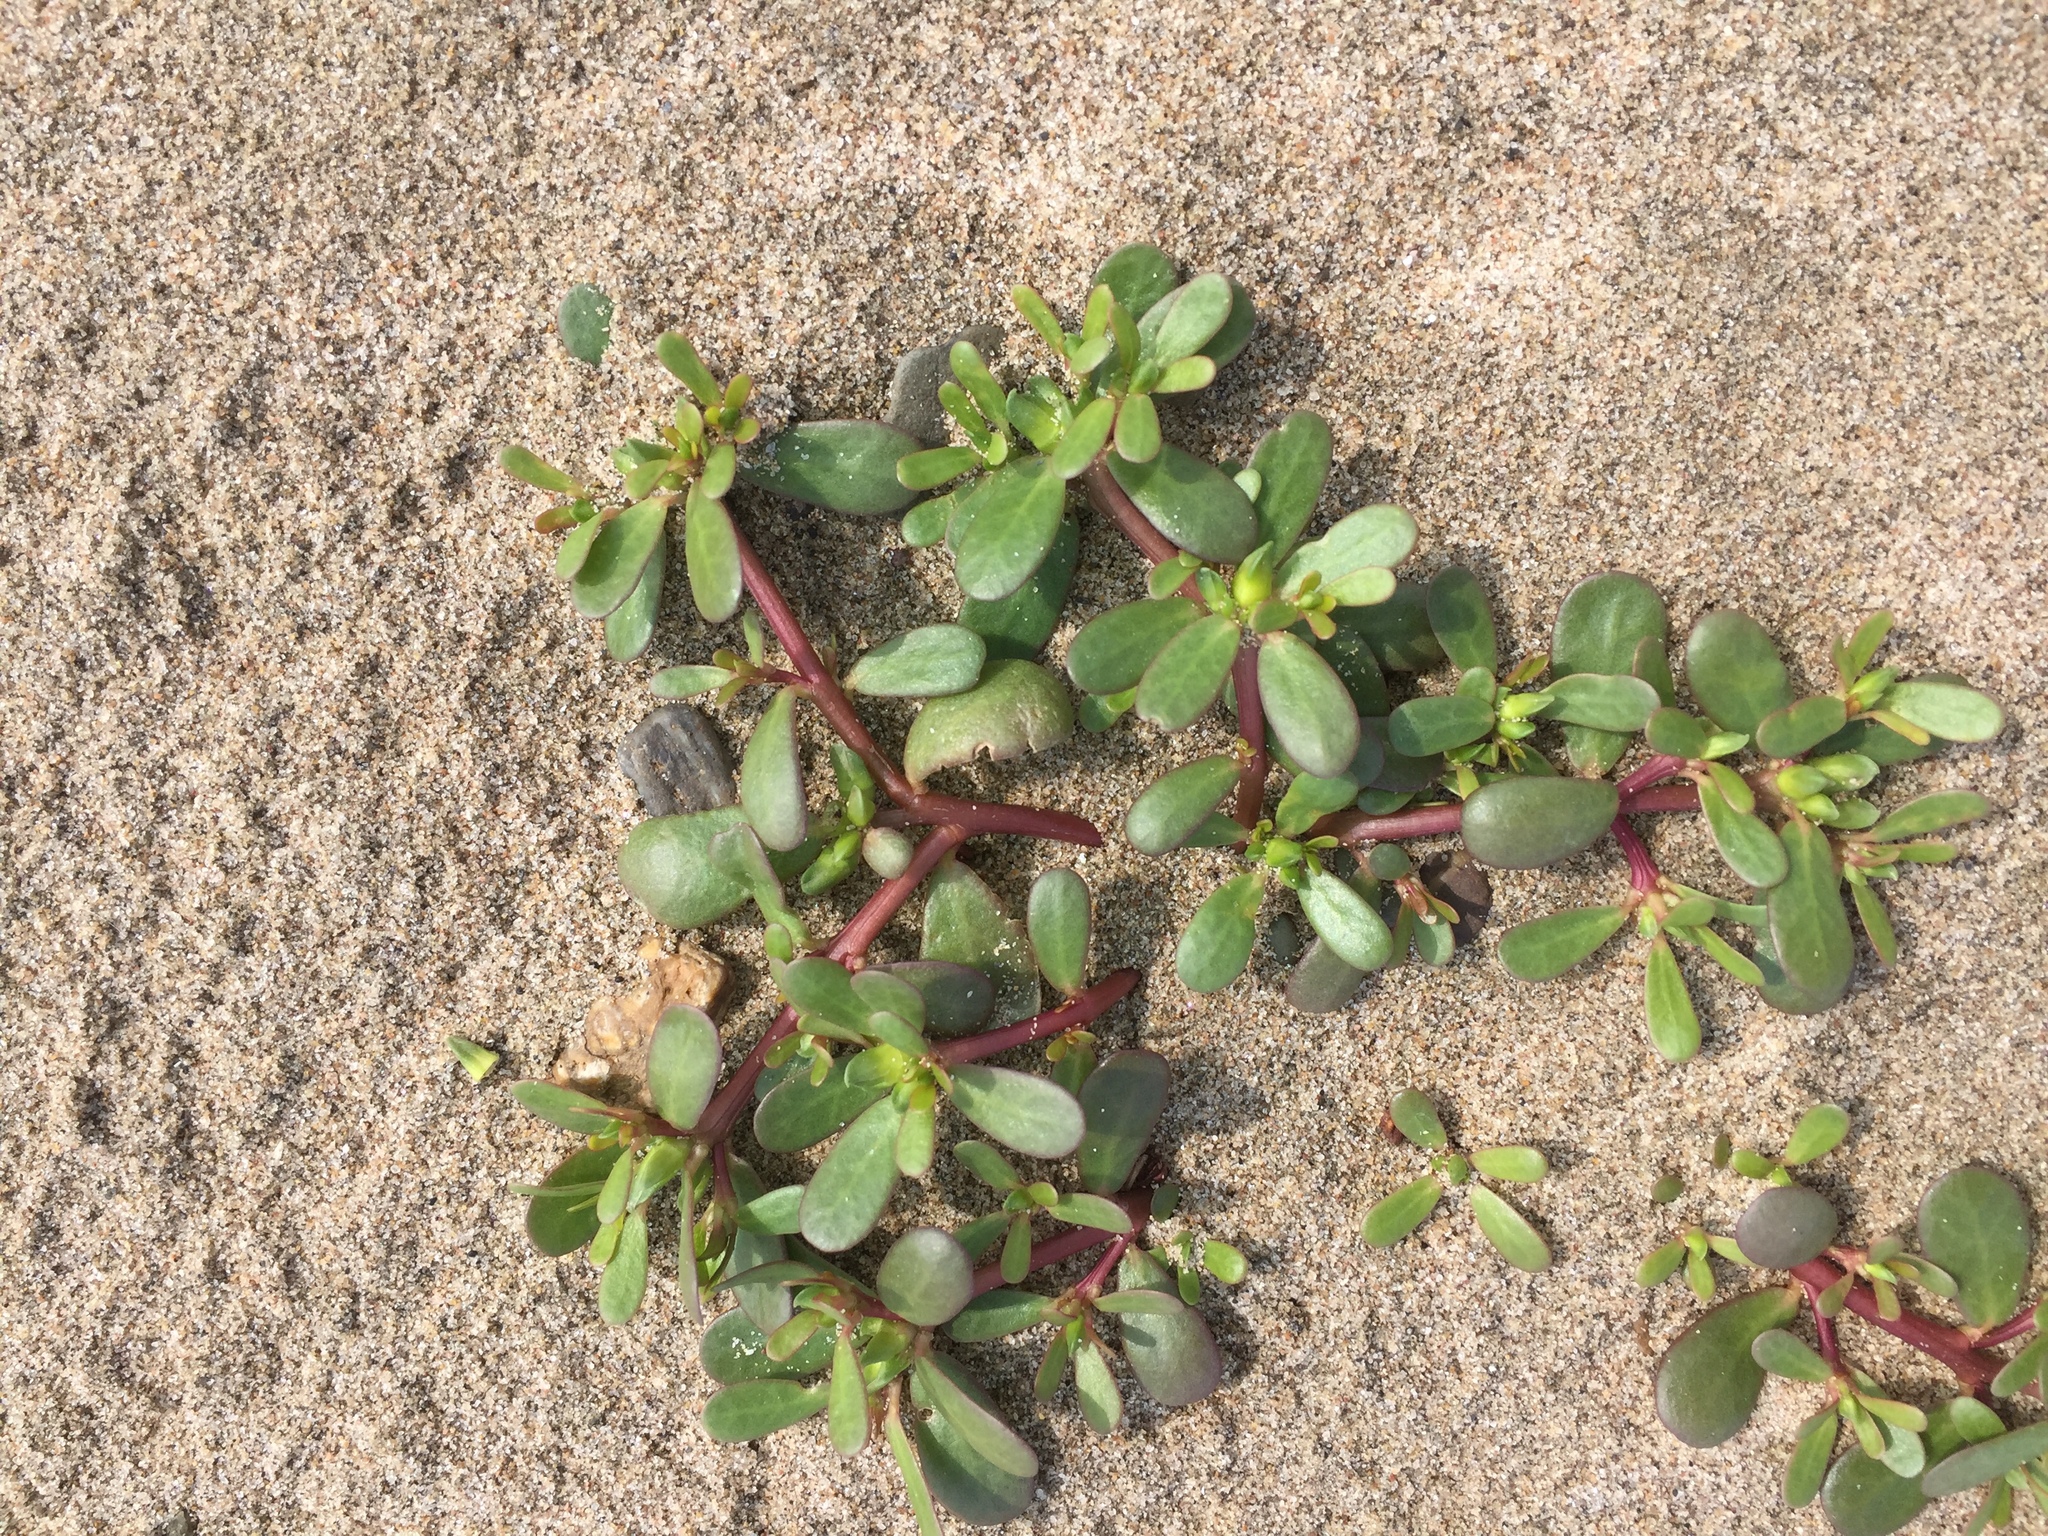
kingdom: Plantae
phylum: Tracheophyta
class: Magnoliopsida
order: Caryophyllales
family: Portulacaceae
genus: Portulaca
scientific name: Portulaca oleracea
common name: Common purslane
